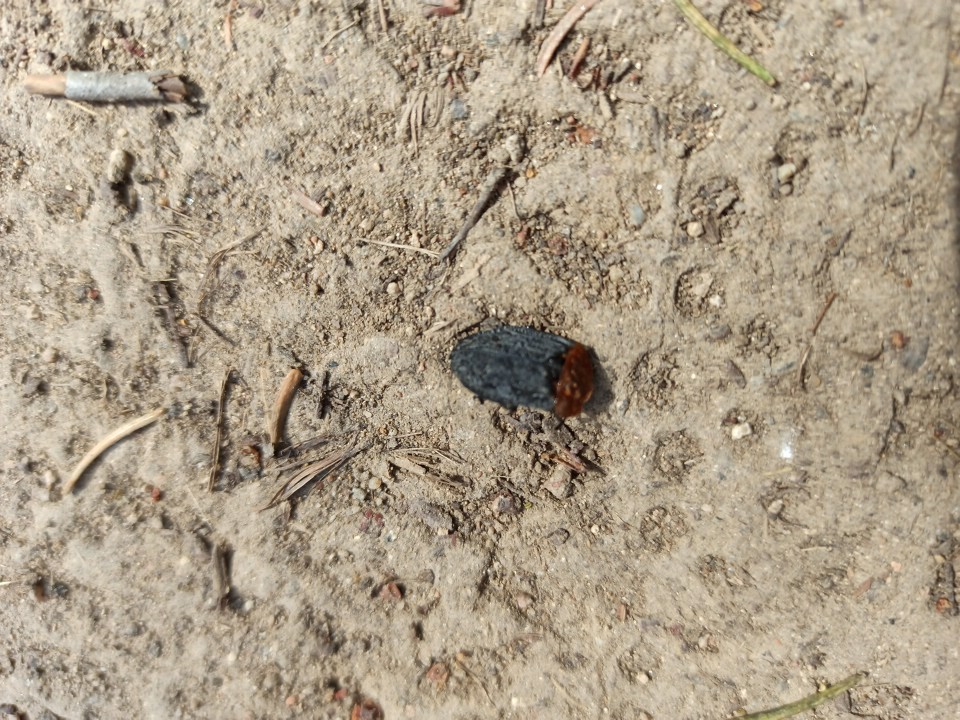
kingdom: Animalia
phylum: Arthropoda
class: Insecta
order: Coleoptera
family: Staphylinidae
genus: Oiceoptoma
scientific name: Oiceoptoma thoracicum
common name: Red-breasted carrion beetle
